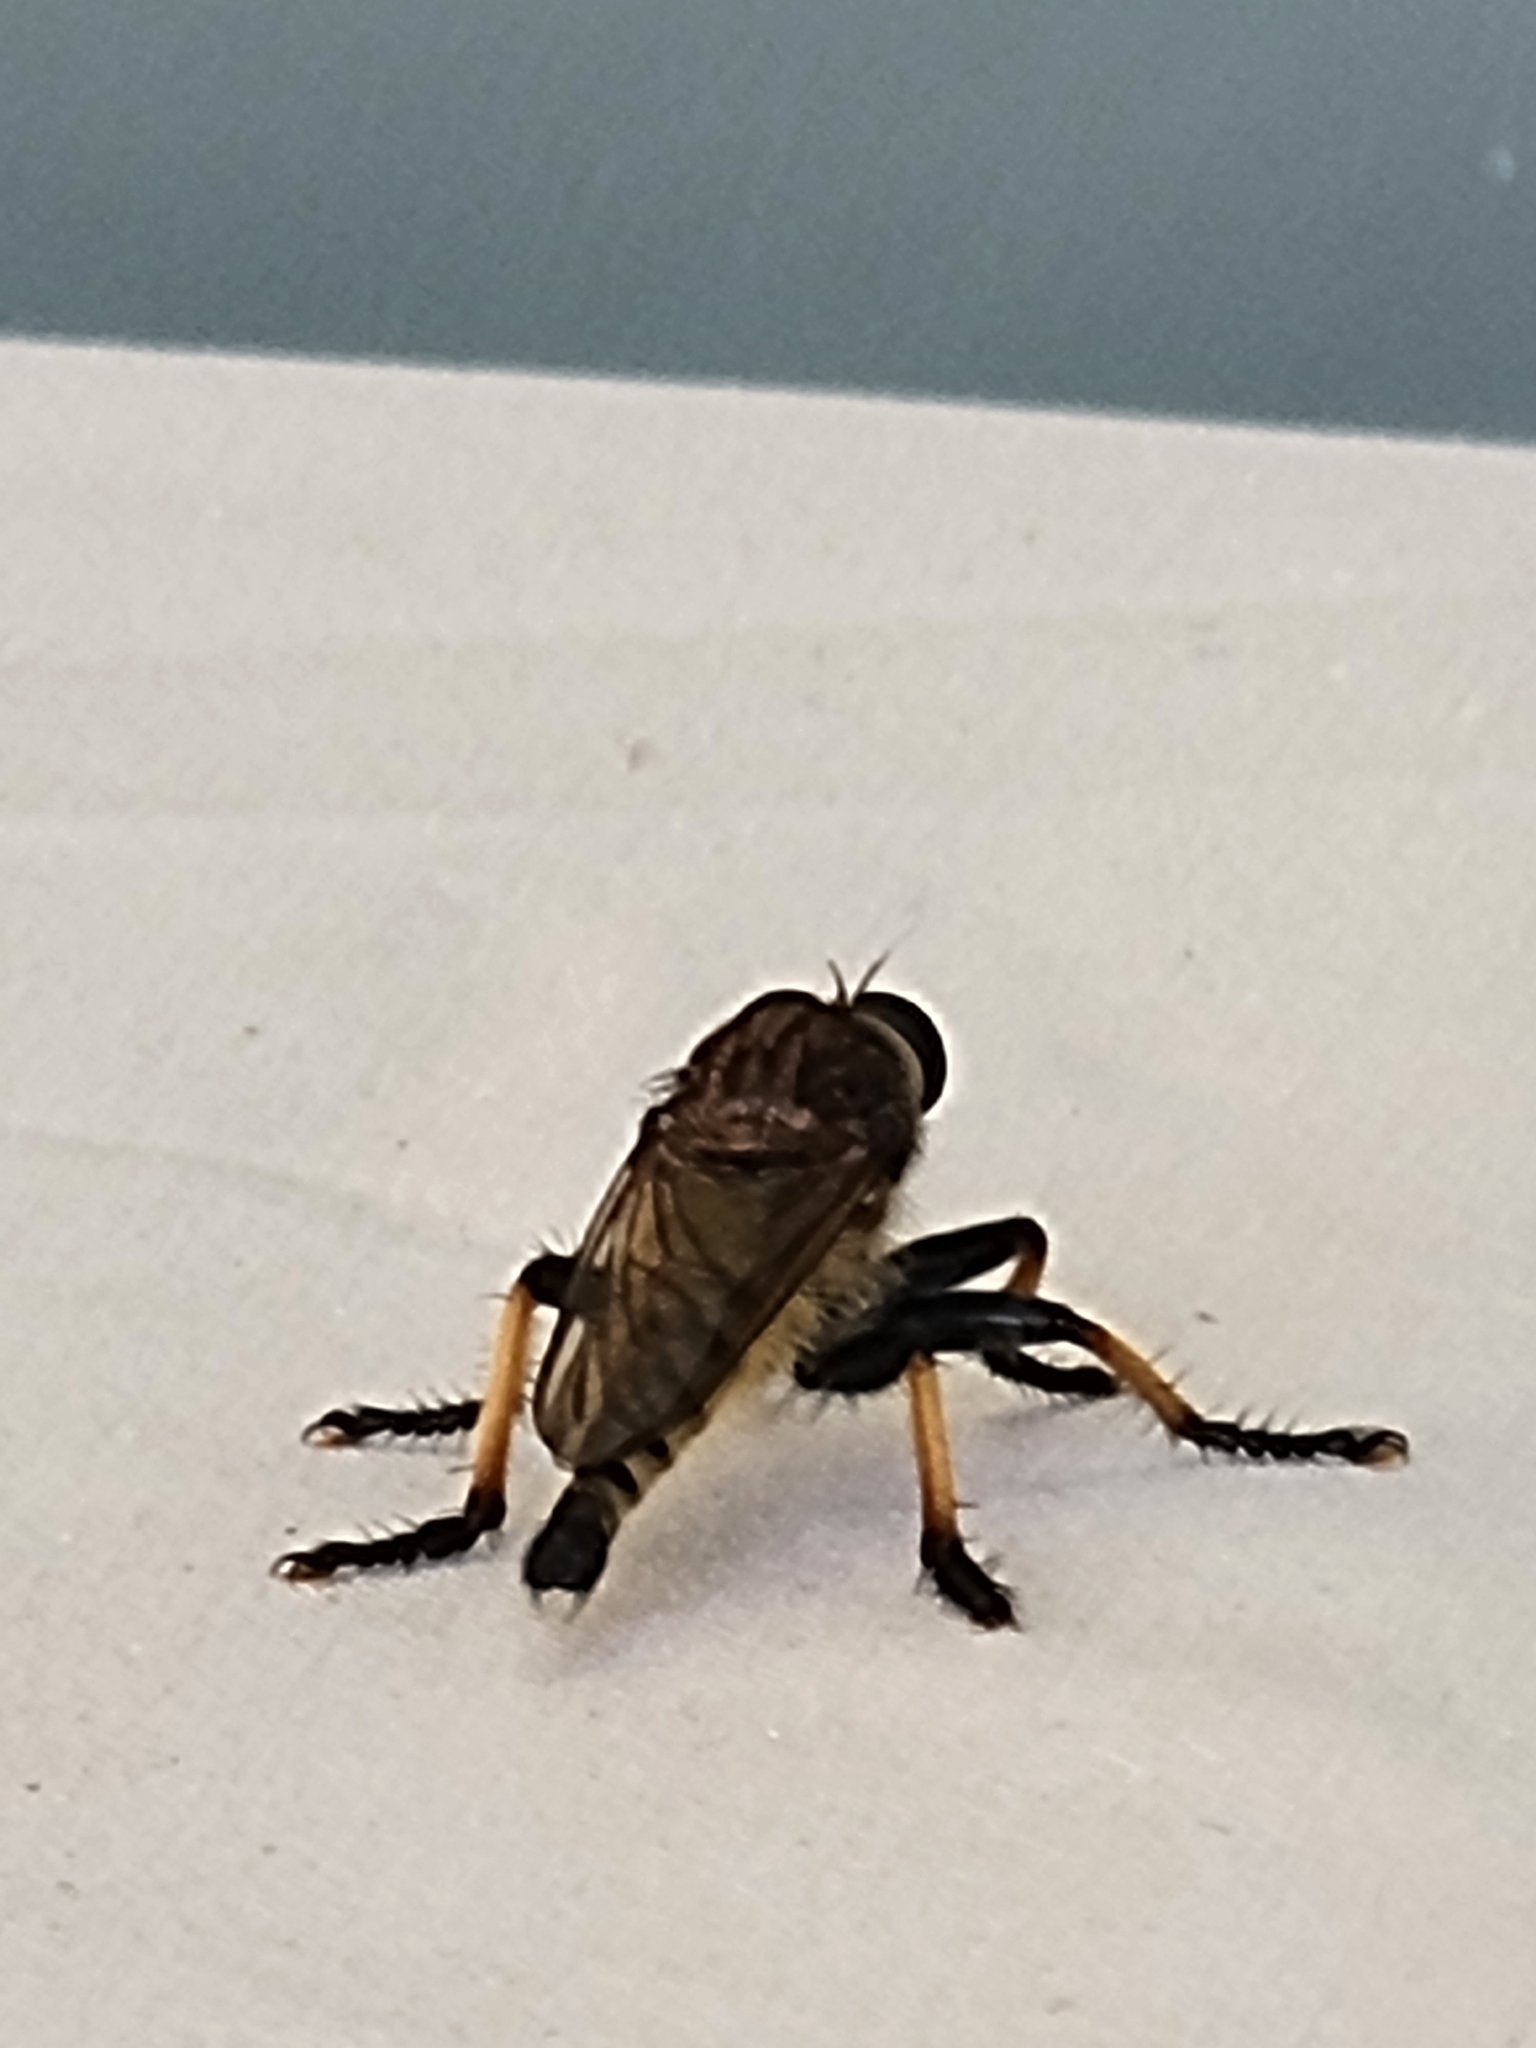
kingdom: Animalia
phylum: Arthropoda
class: Insecta
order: Diptera
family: Asilidae
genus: Promachus
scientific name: Promachus rufipes
